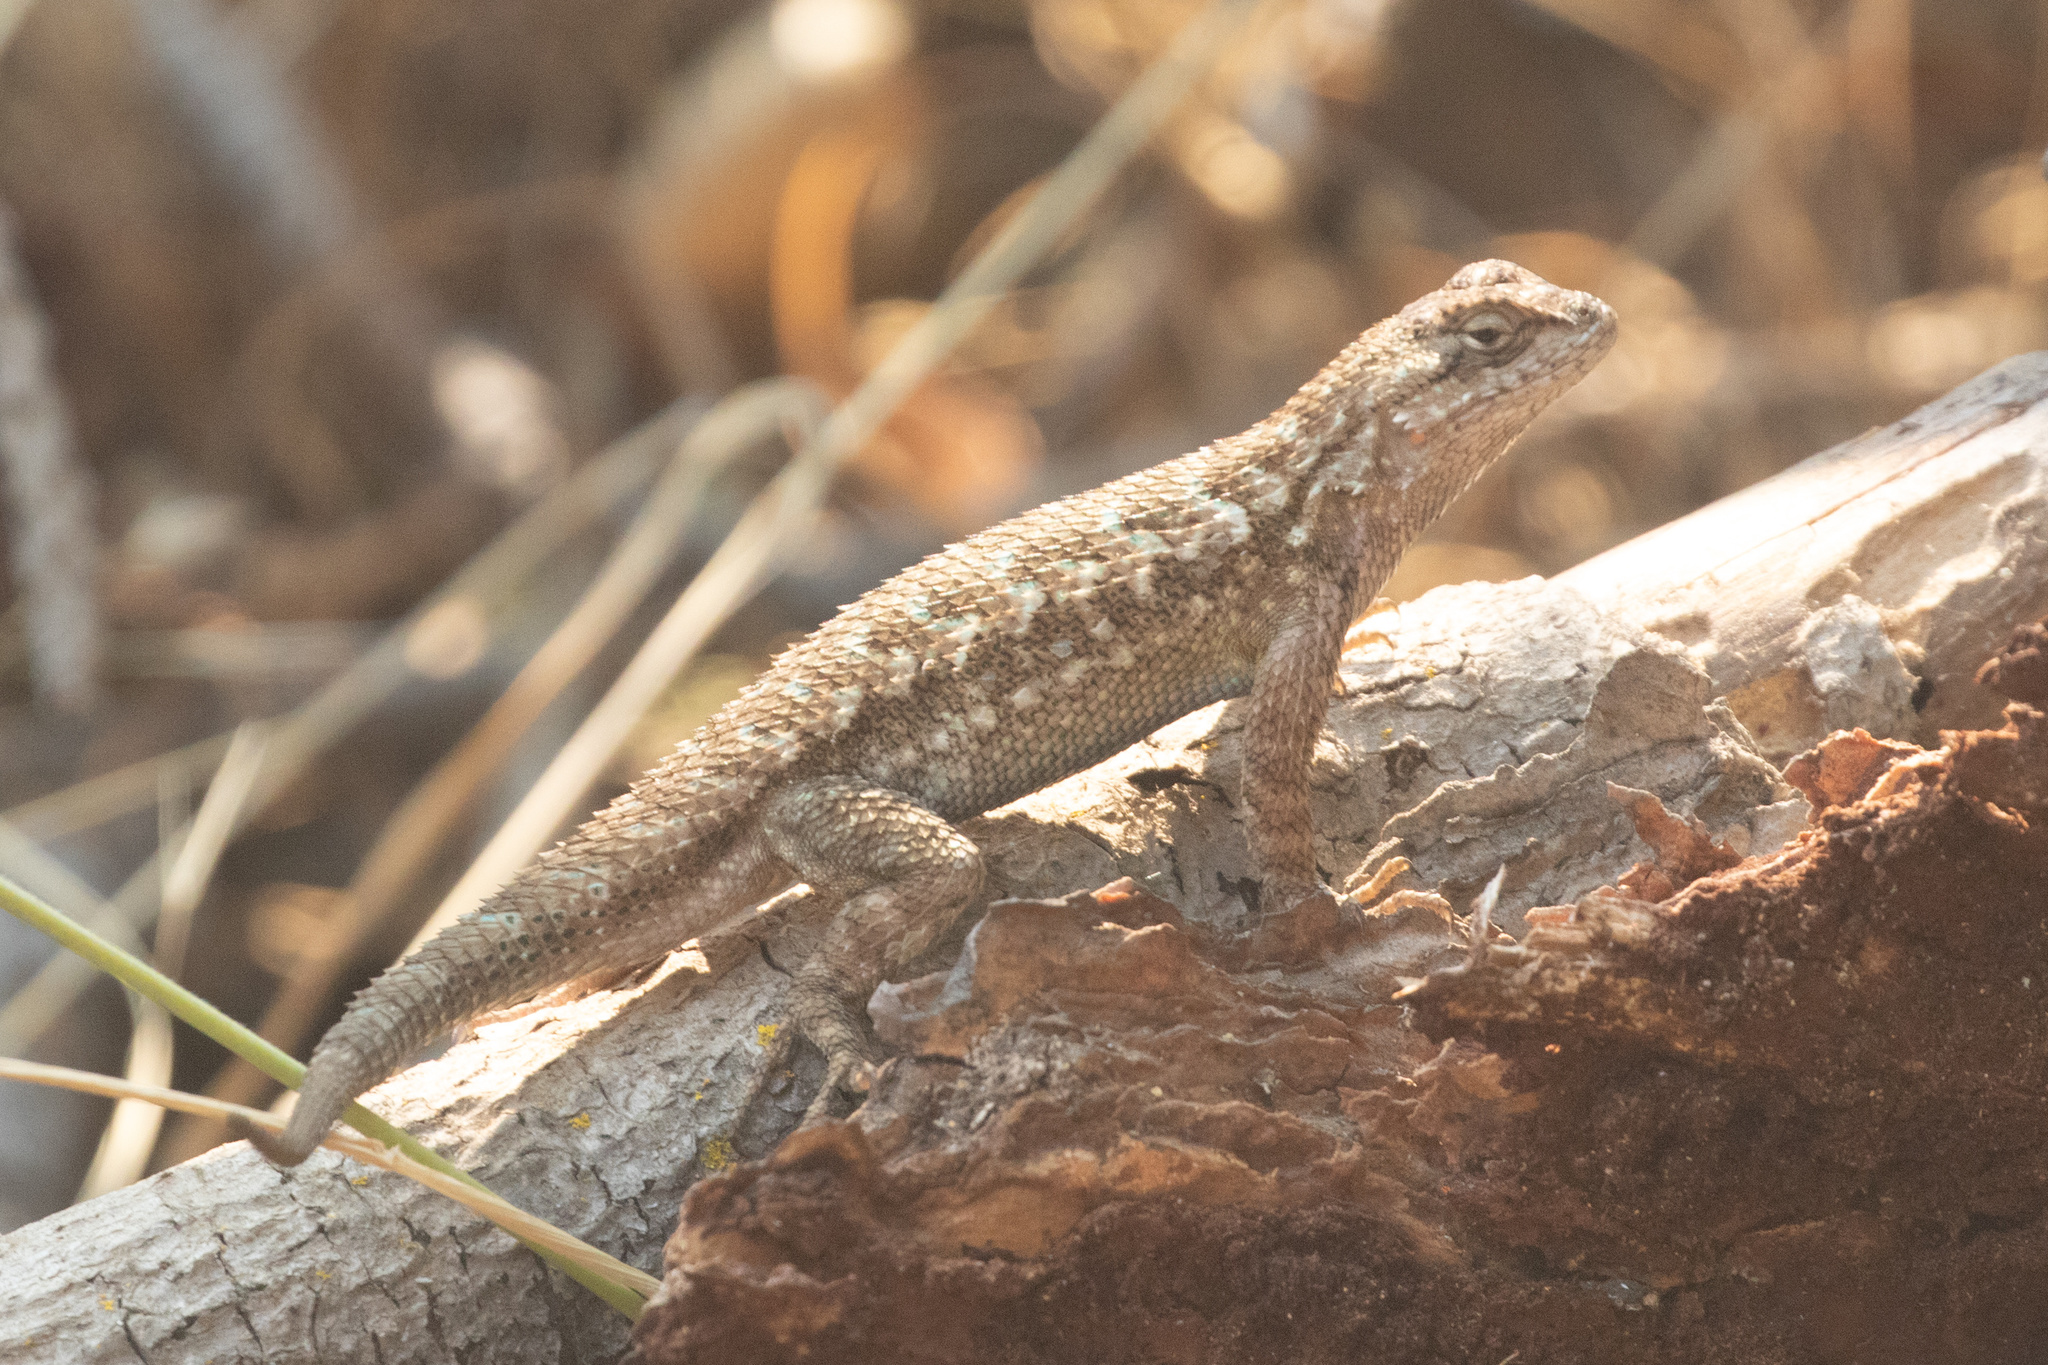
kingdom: Animalia
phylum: Chordata
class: Squamata
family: Phrynosomatidae
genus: Sceloporus
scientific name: Sceloporus occidentalis
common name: Western fence lizard
